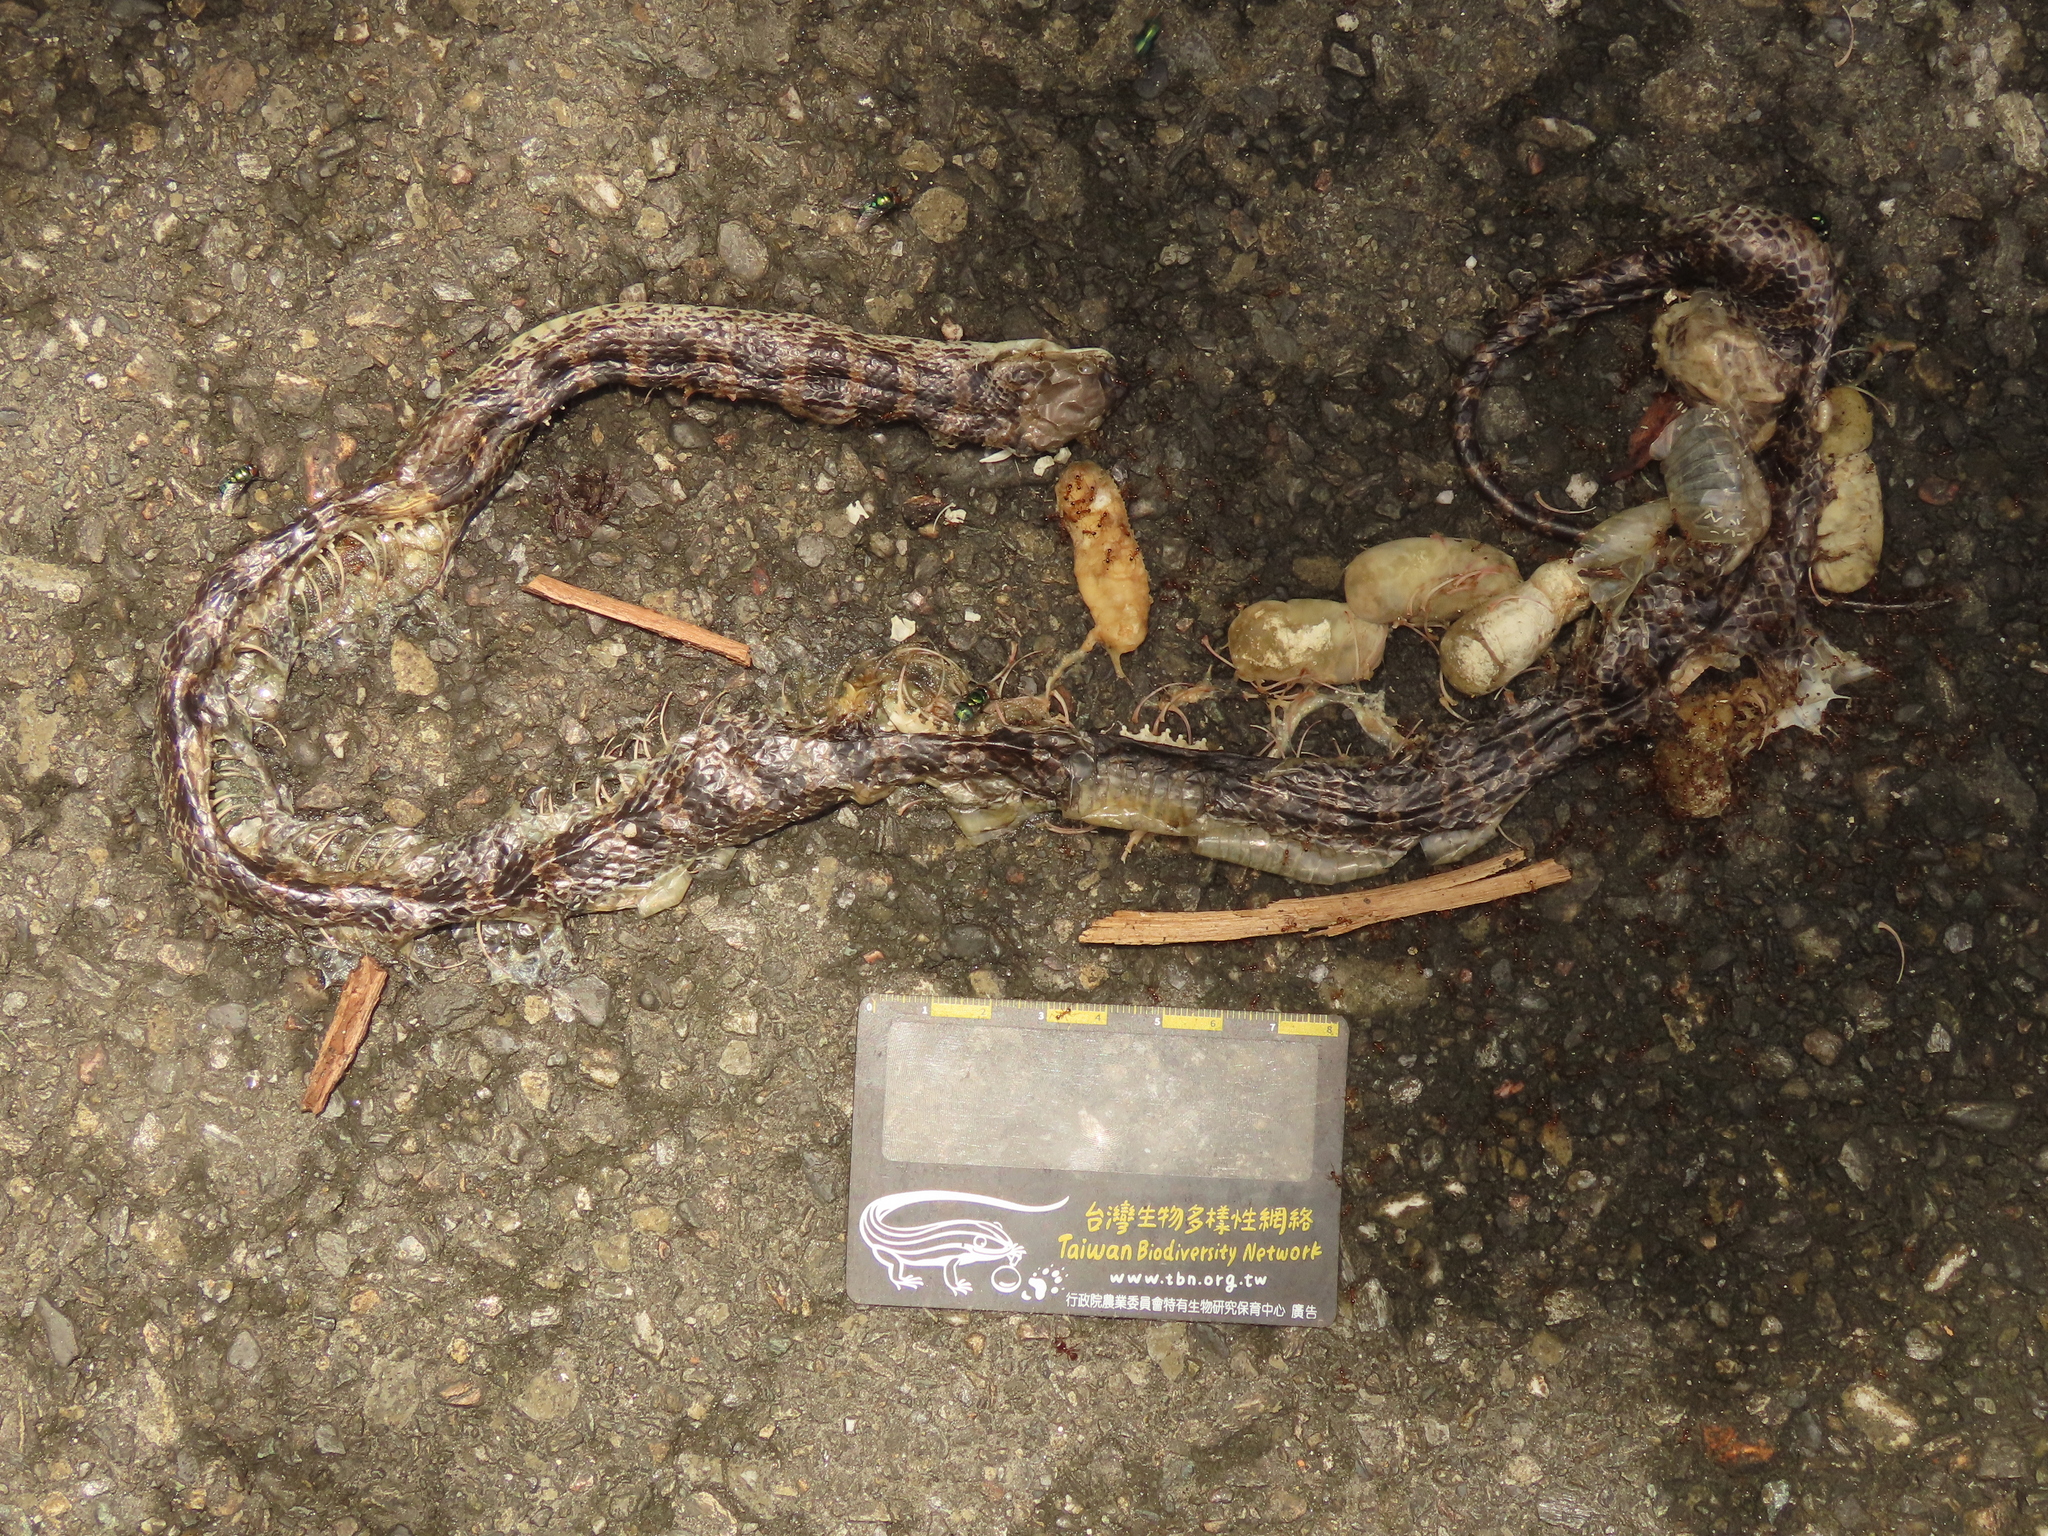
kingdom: Animalia
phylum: Chordata
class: Squamata
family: Colubridae
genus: Lycodon
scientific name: Lycodon rufozonatus
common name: Red-banded snake
